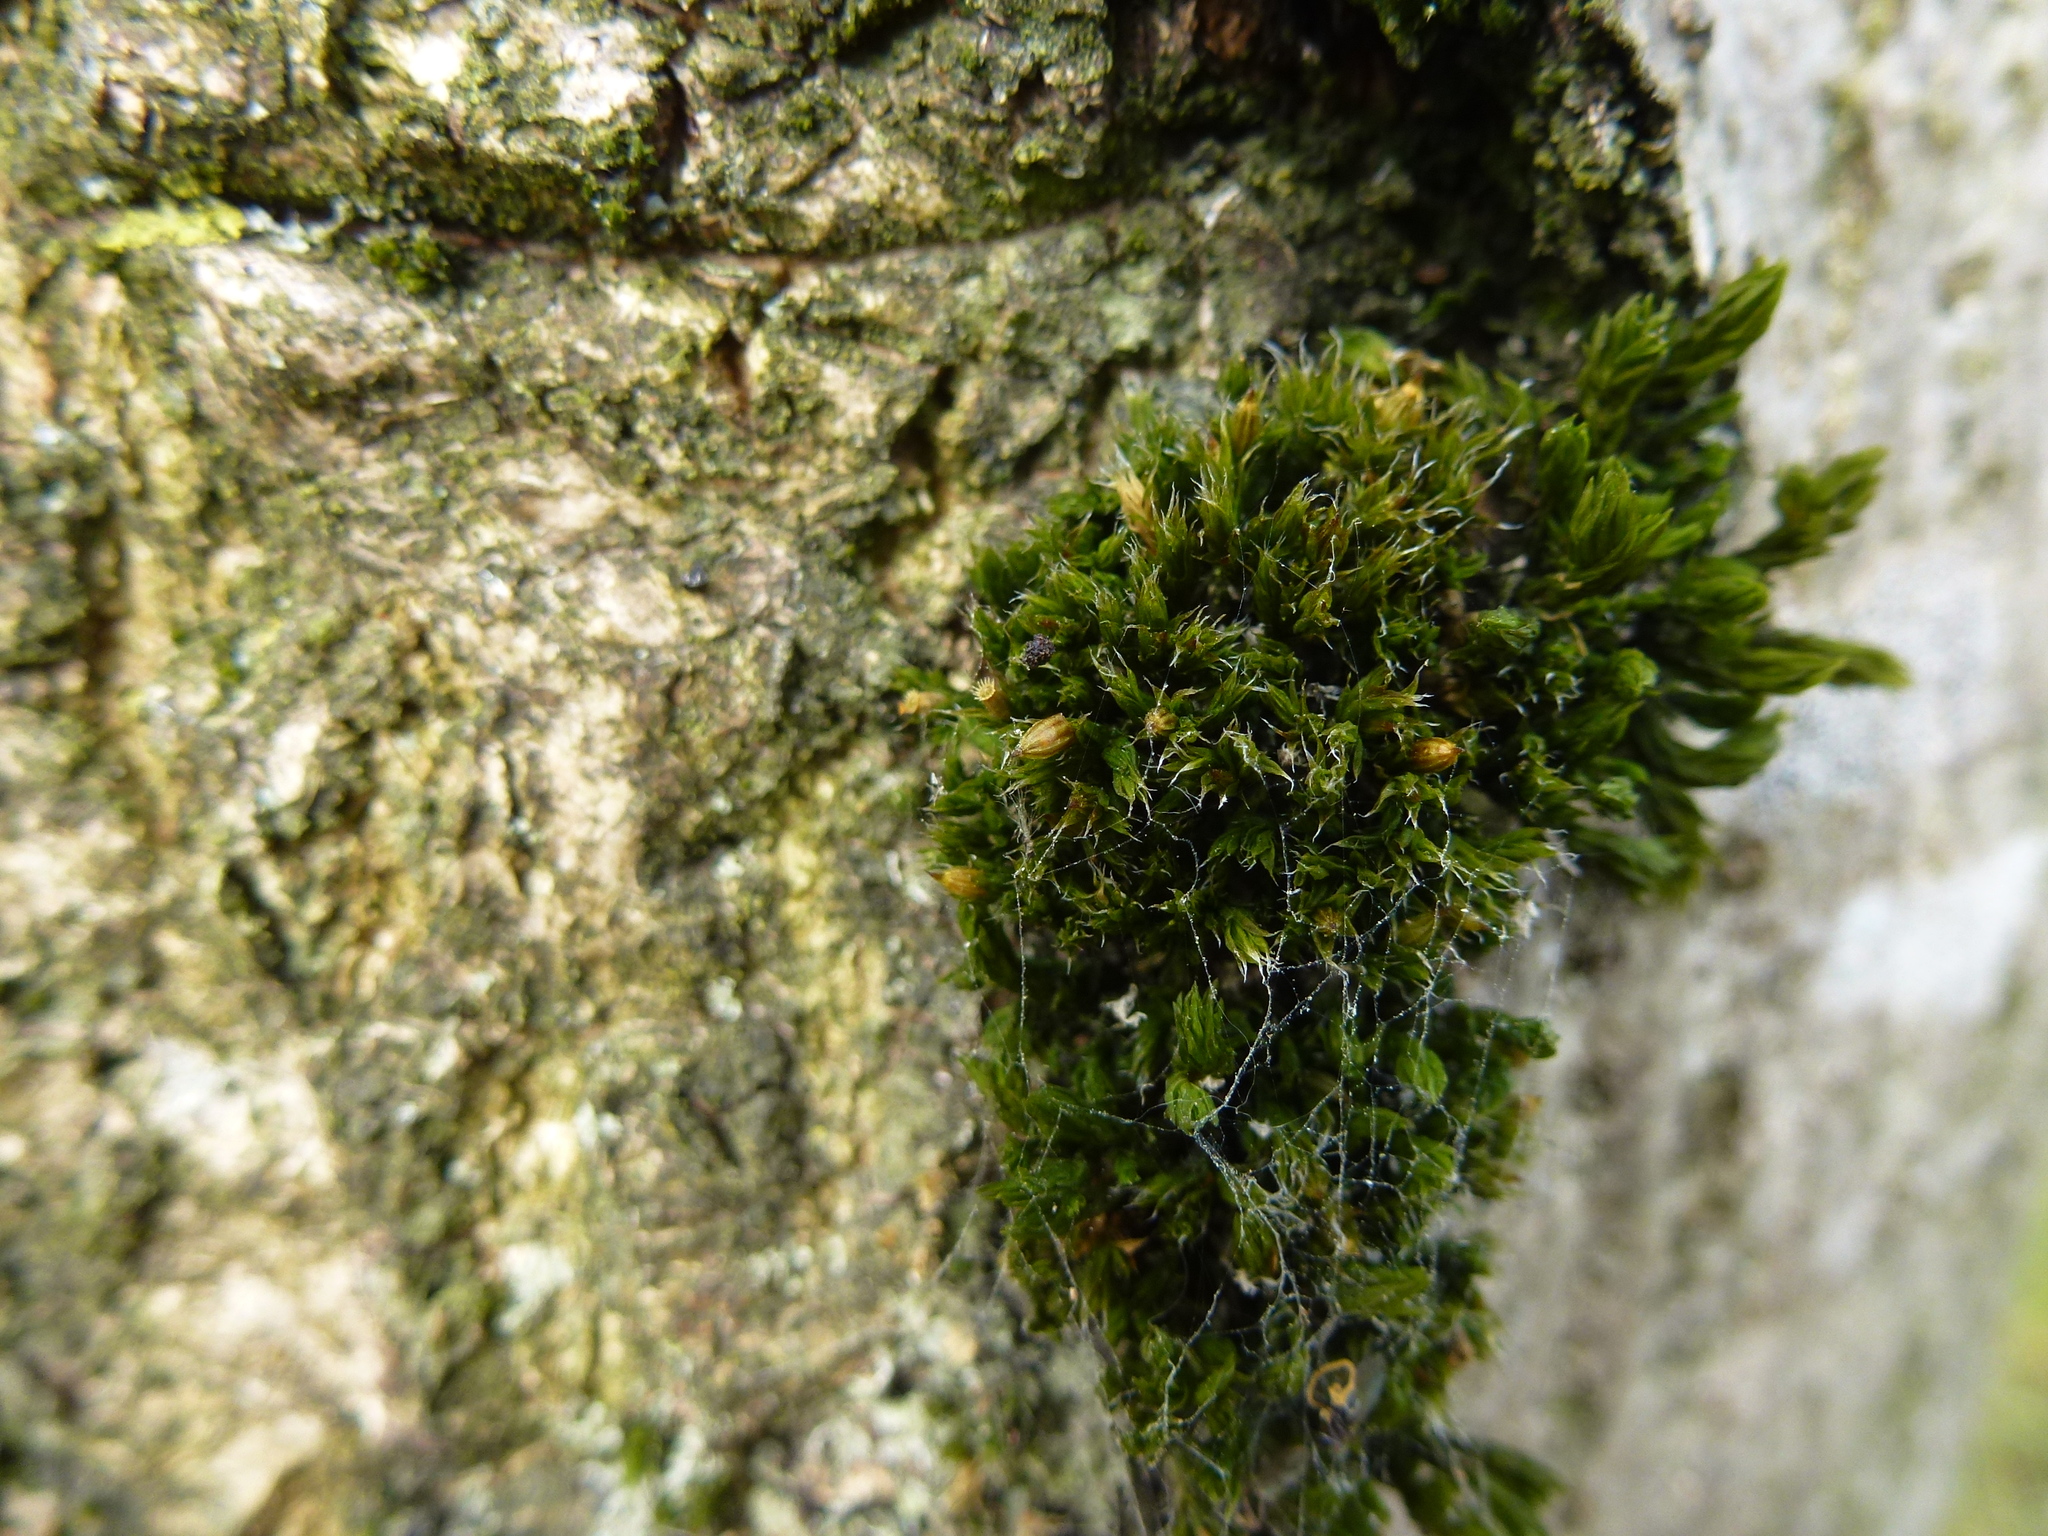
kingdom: Plantae
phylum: Bryophyta
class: Bryopsida
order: Orthotrichales
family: Orthotrichaceae
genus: Orthotrichum
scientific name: Orthotrichum diaphanum
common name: White-tipped bristle-moss
